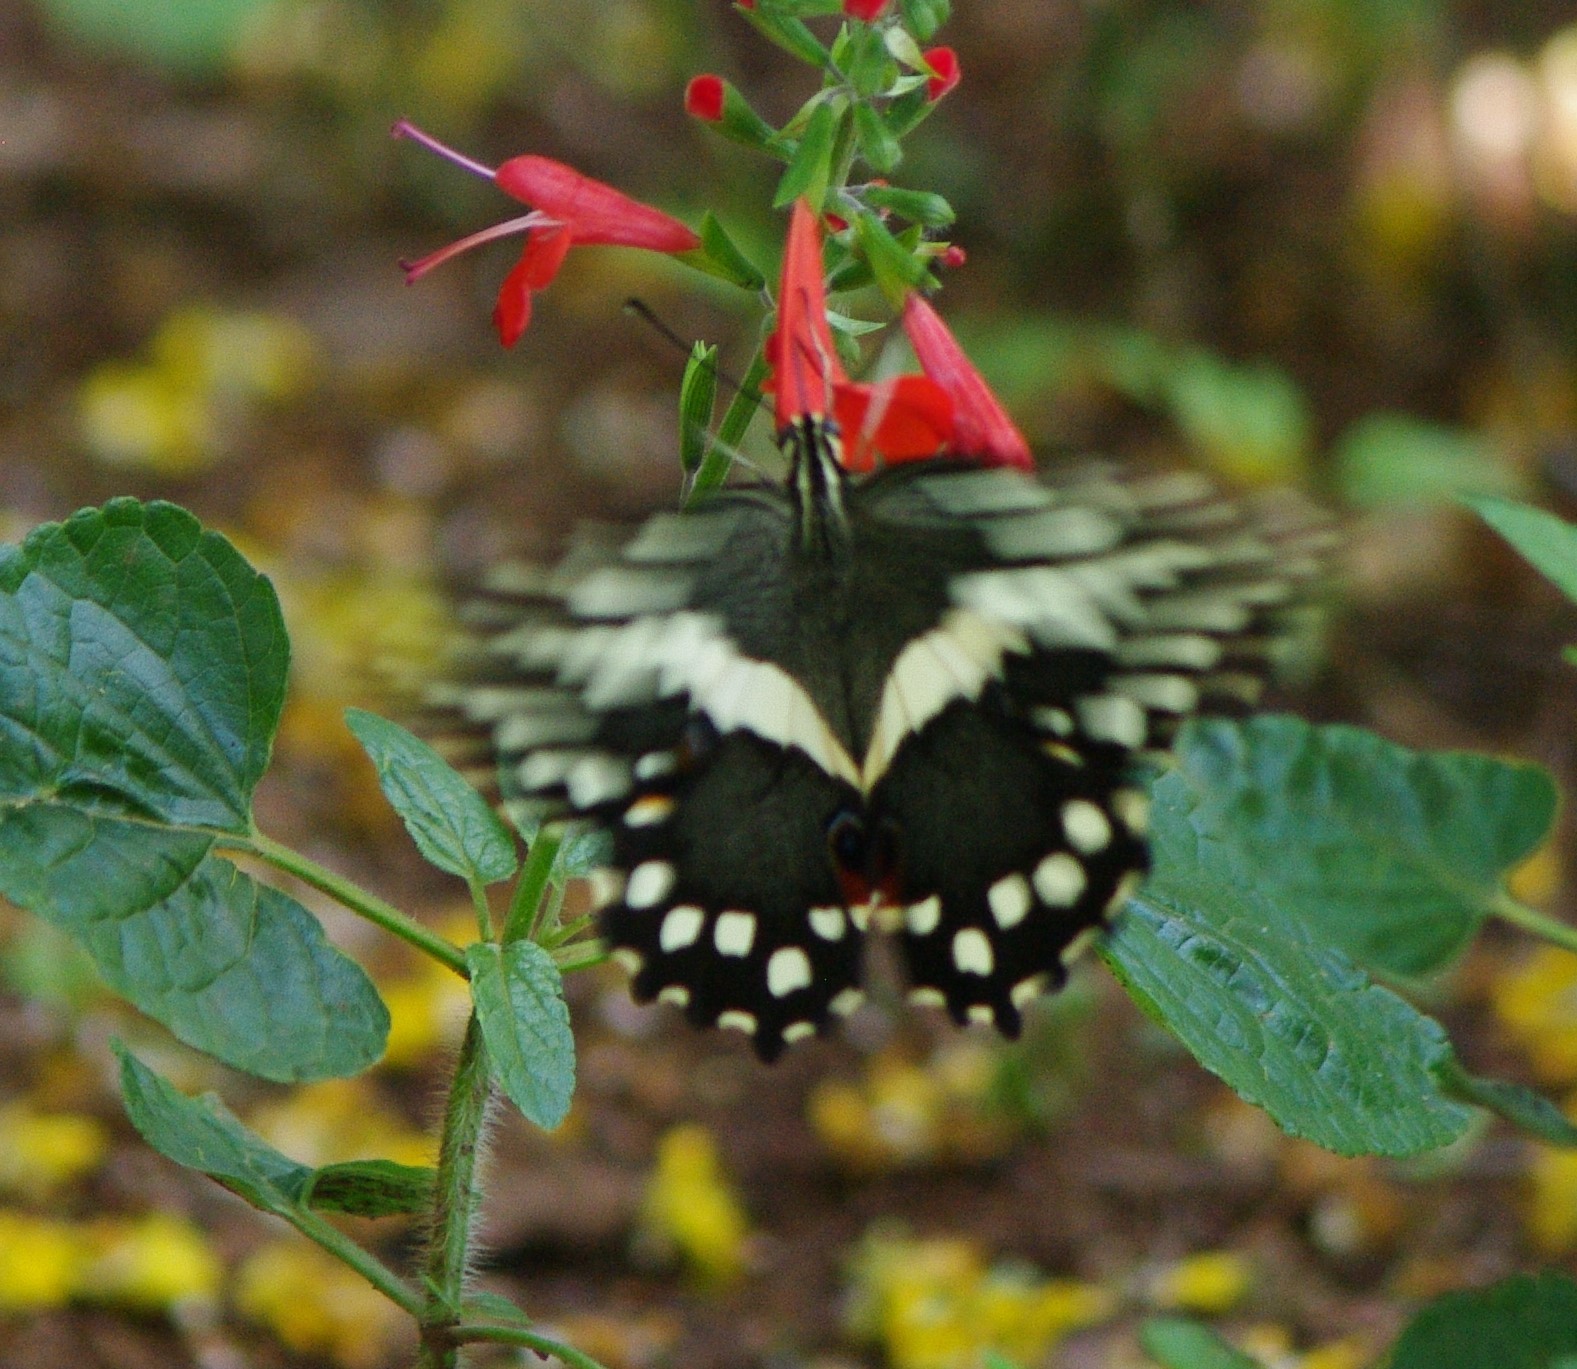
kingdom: Animalia
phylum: Arthropoda
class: Insecta
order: Lepidoptera
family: Papilionidae
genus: Papilio
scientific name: Papilio demodocus
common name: Christmas butterfly
